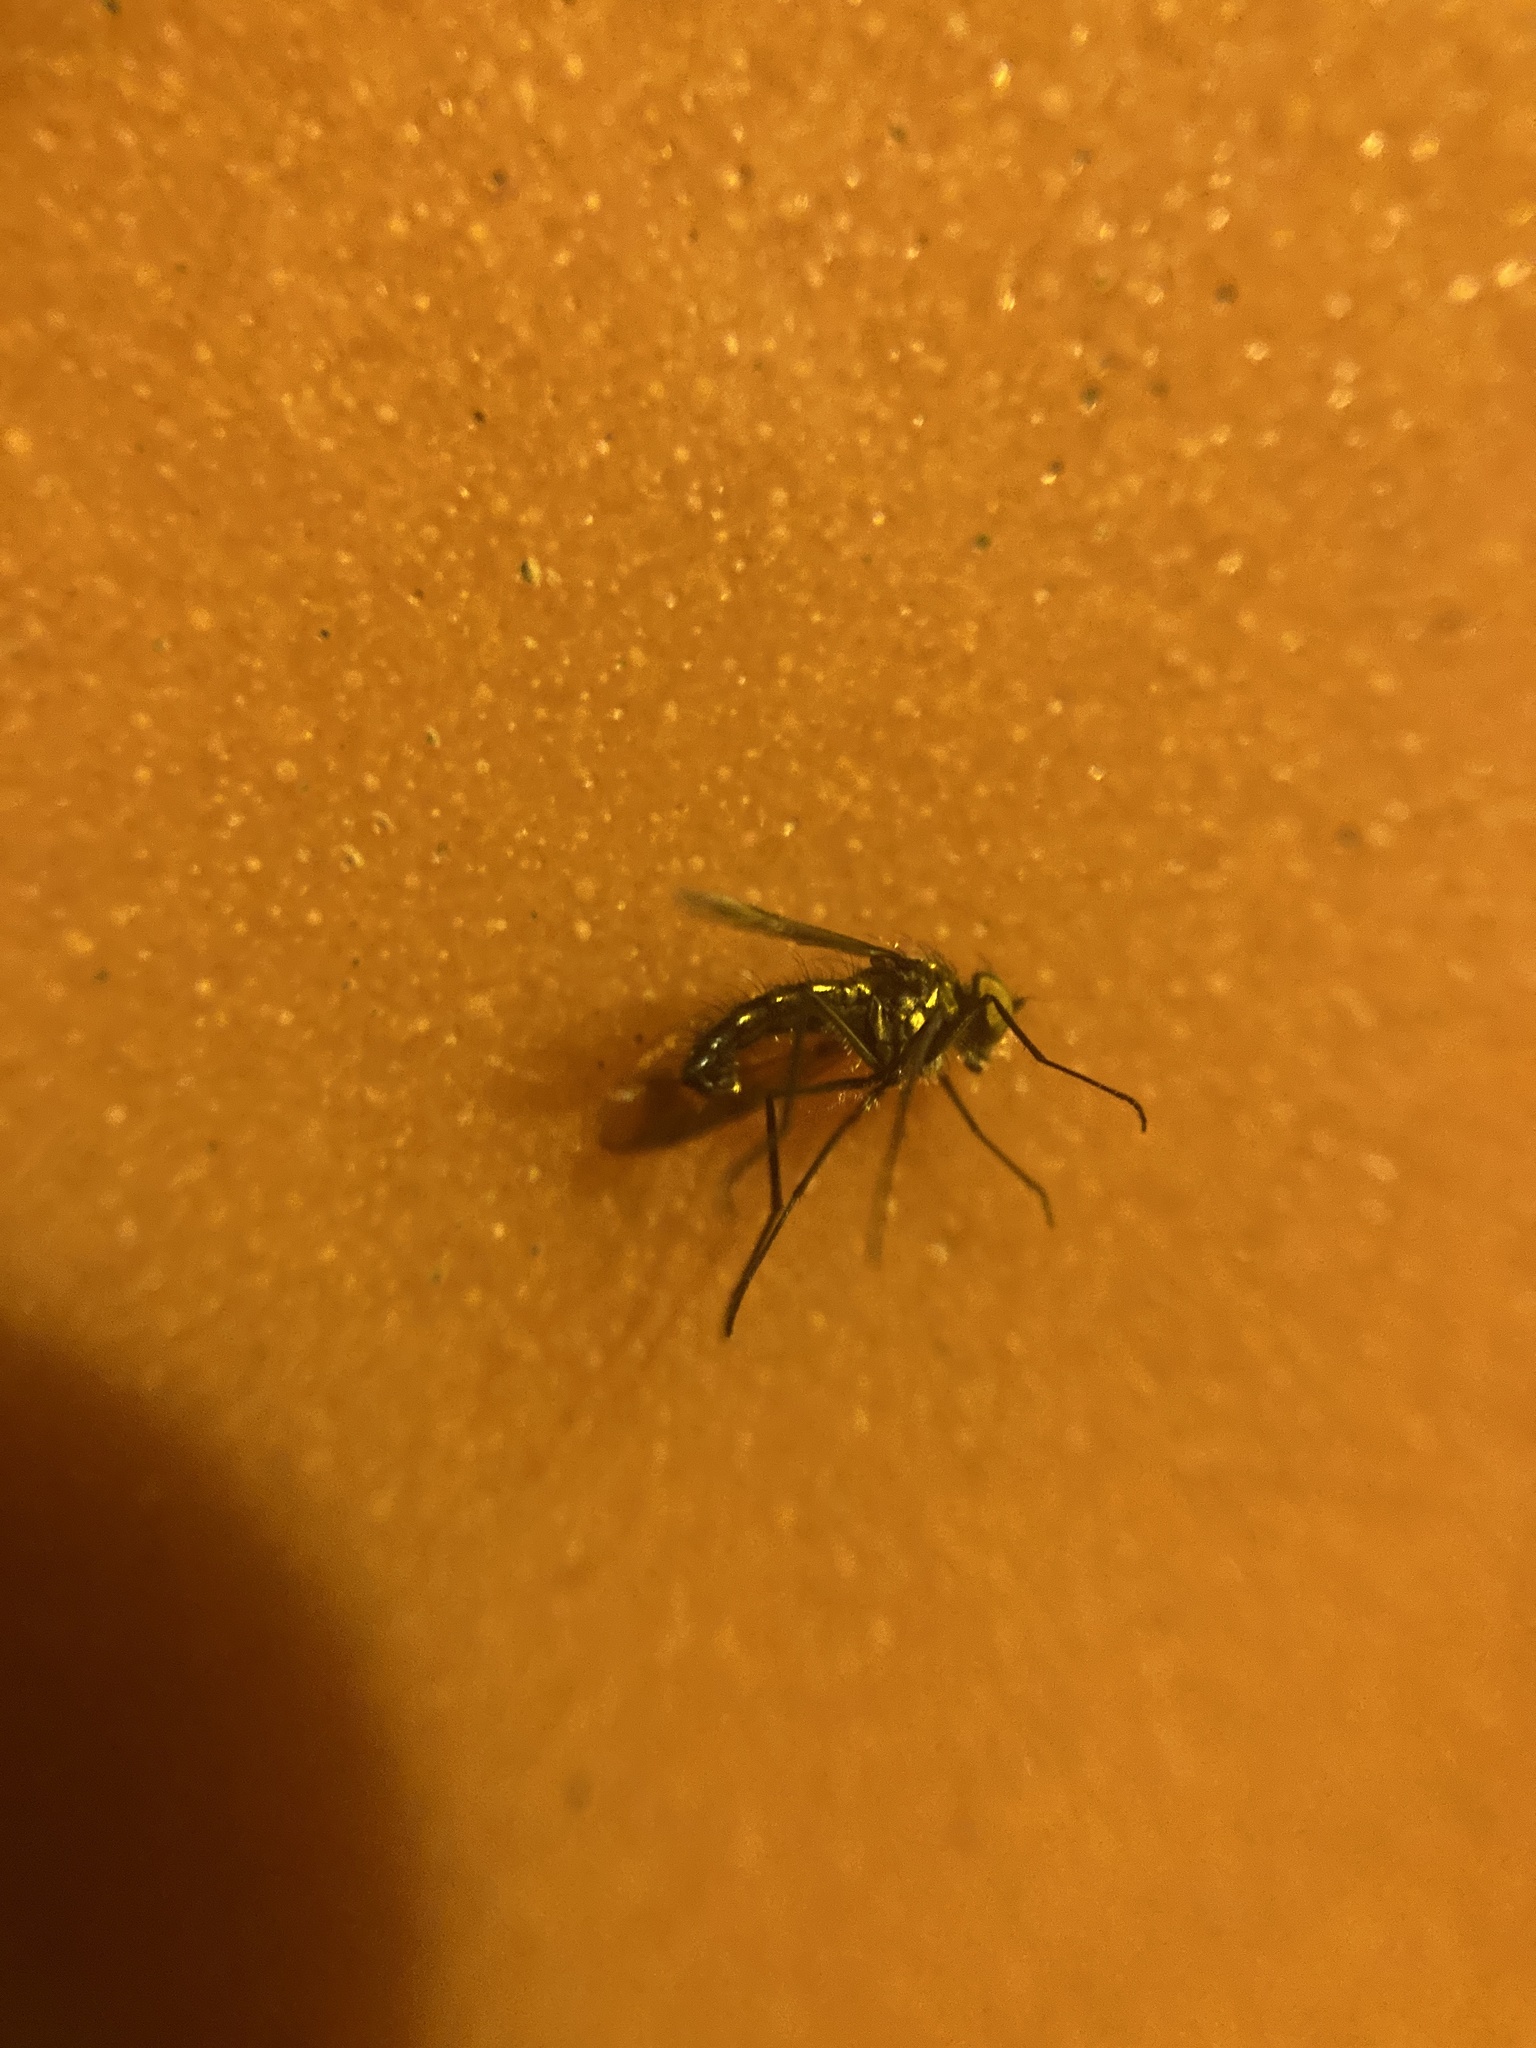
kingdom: Animalia
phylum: Arthropoda
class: Insecta
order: Diptera
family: Dolichopodidae
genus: Condylostylus
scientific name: Condylostylus patibulatus
